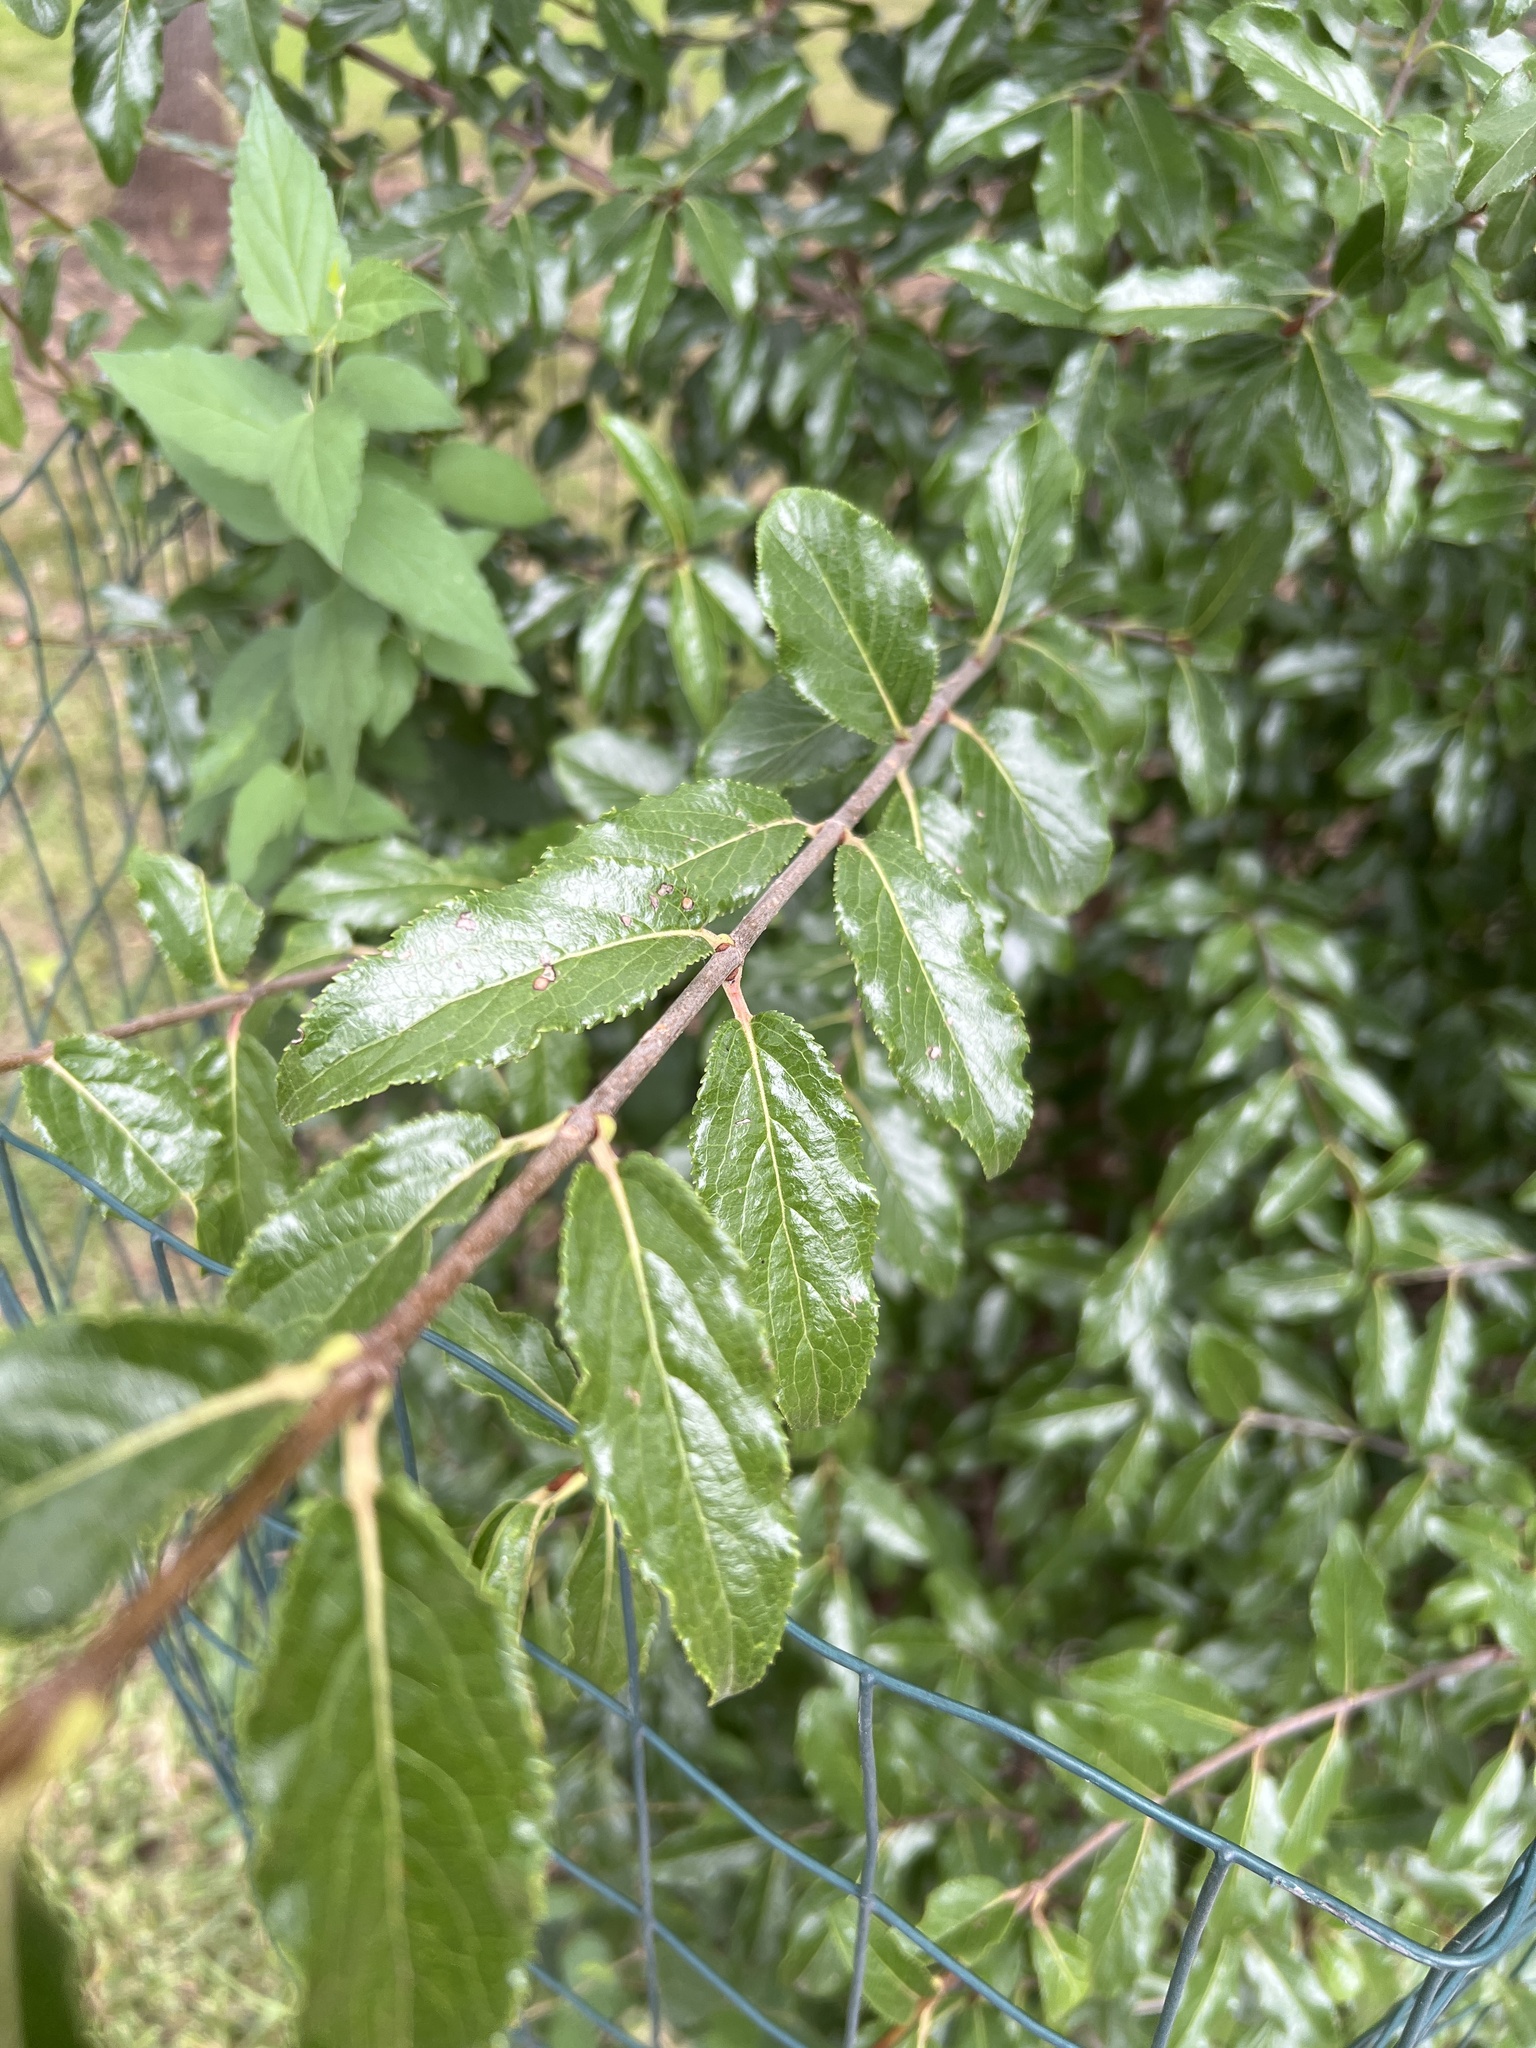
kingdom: Plantae
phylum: Tracheophyta
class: Magnoliopsida
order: Dipsacales
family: Viburnaceae
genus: Viburnum
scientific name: Viburnum rufidulum
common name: Blue haw
